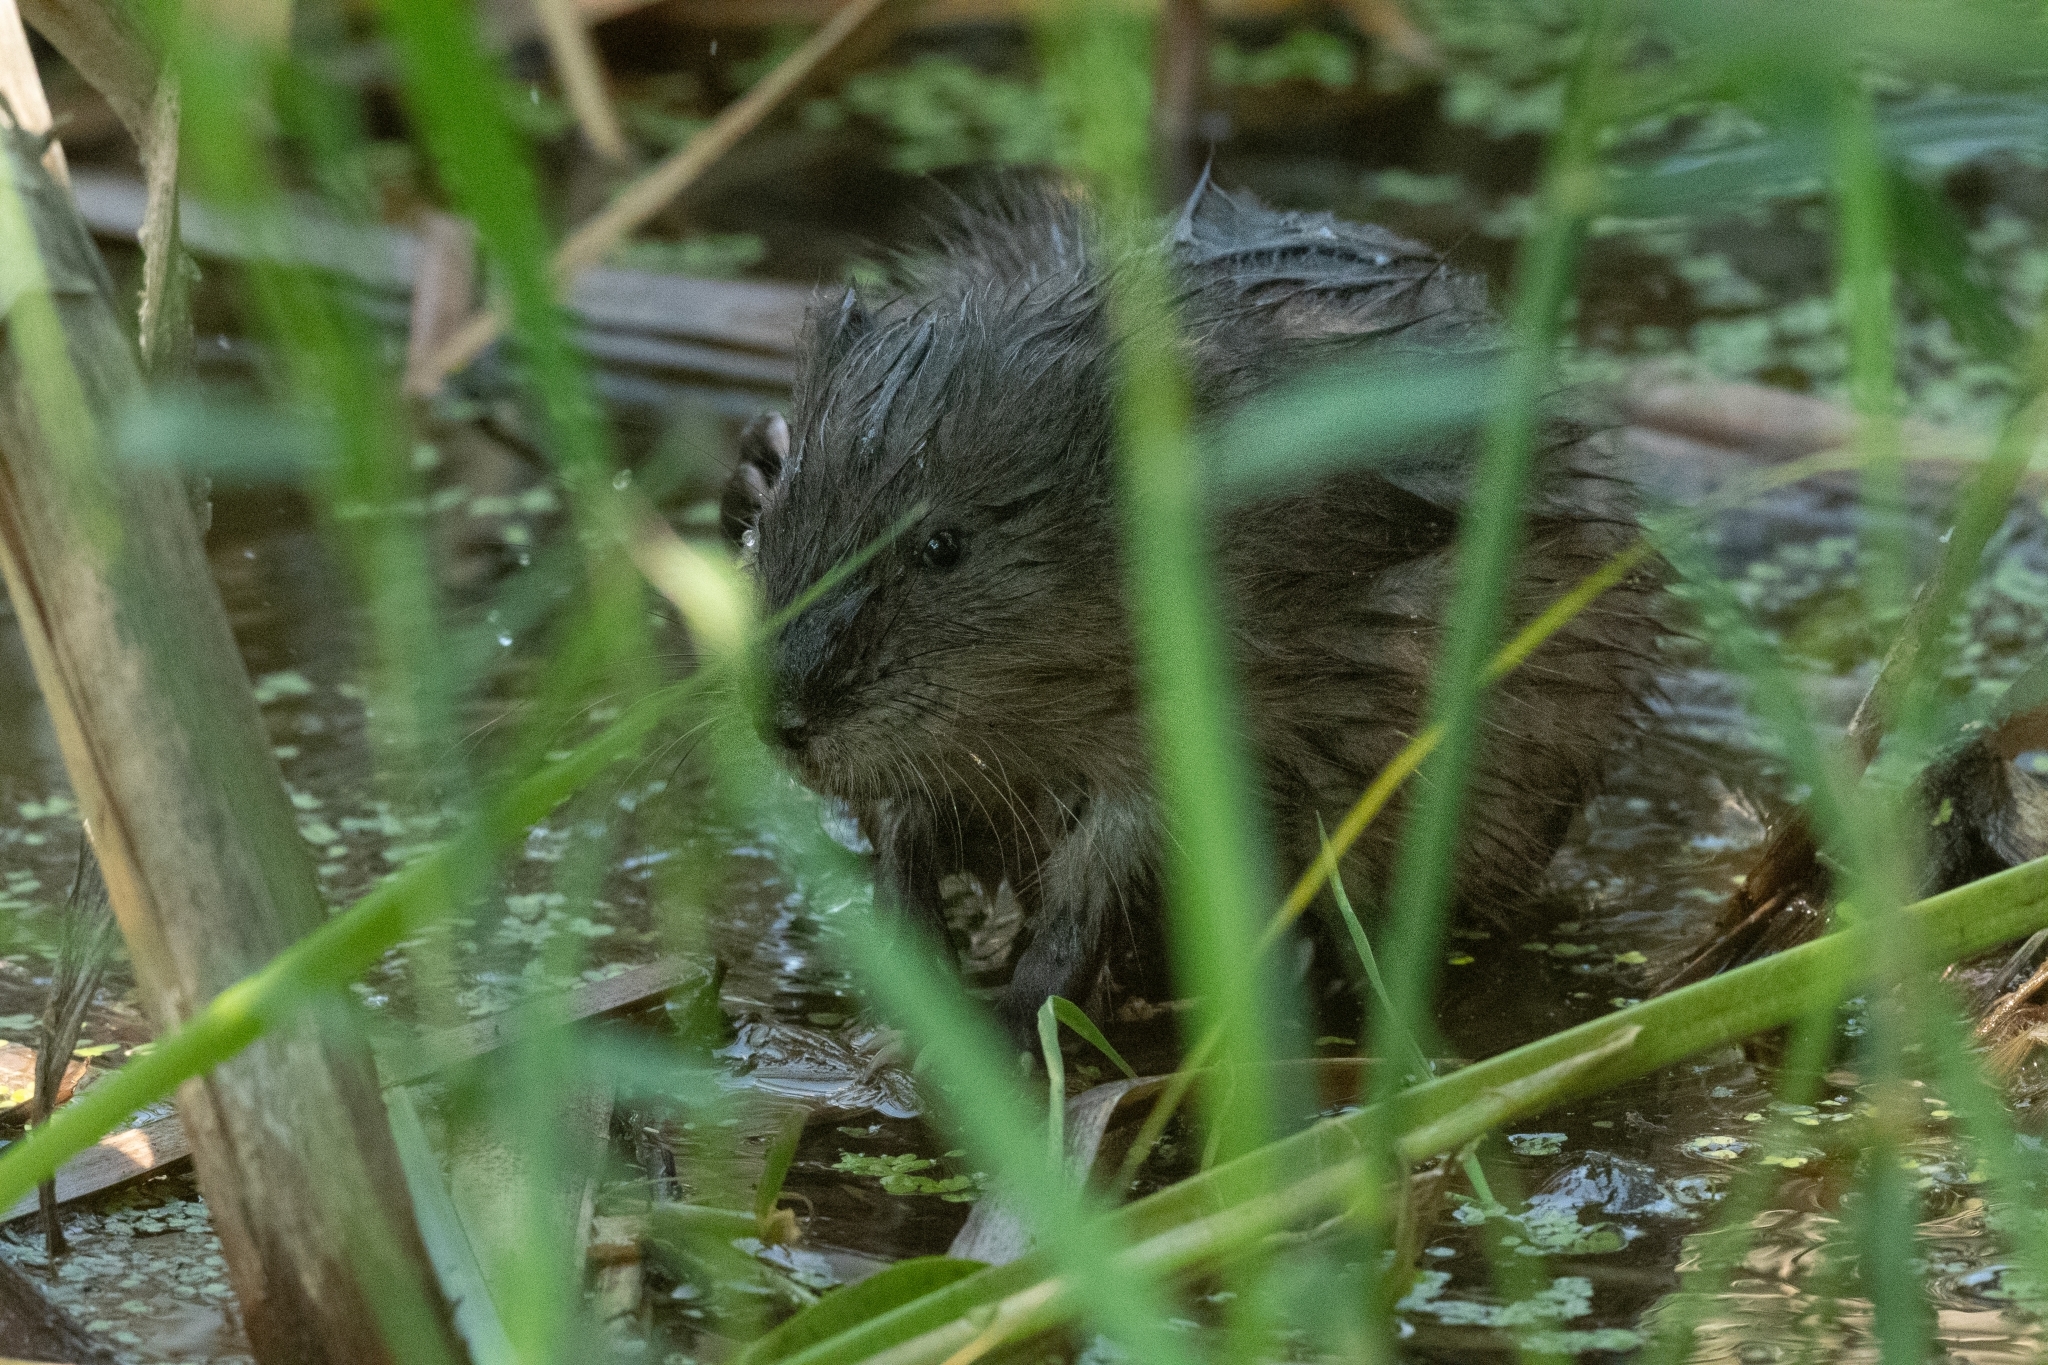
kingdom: Animalia
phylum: Chordata
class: Mammalia
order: Rodentia
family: Cricetidae
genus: Ondatra
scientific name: Ondatra zibethicus
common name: Muskrat
